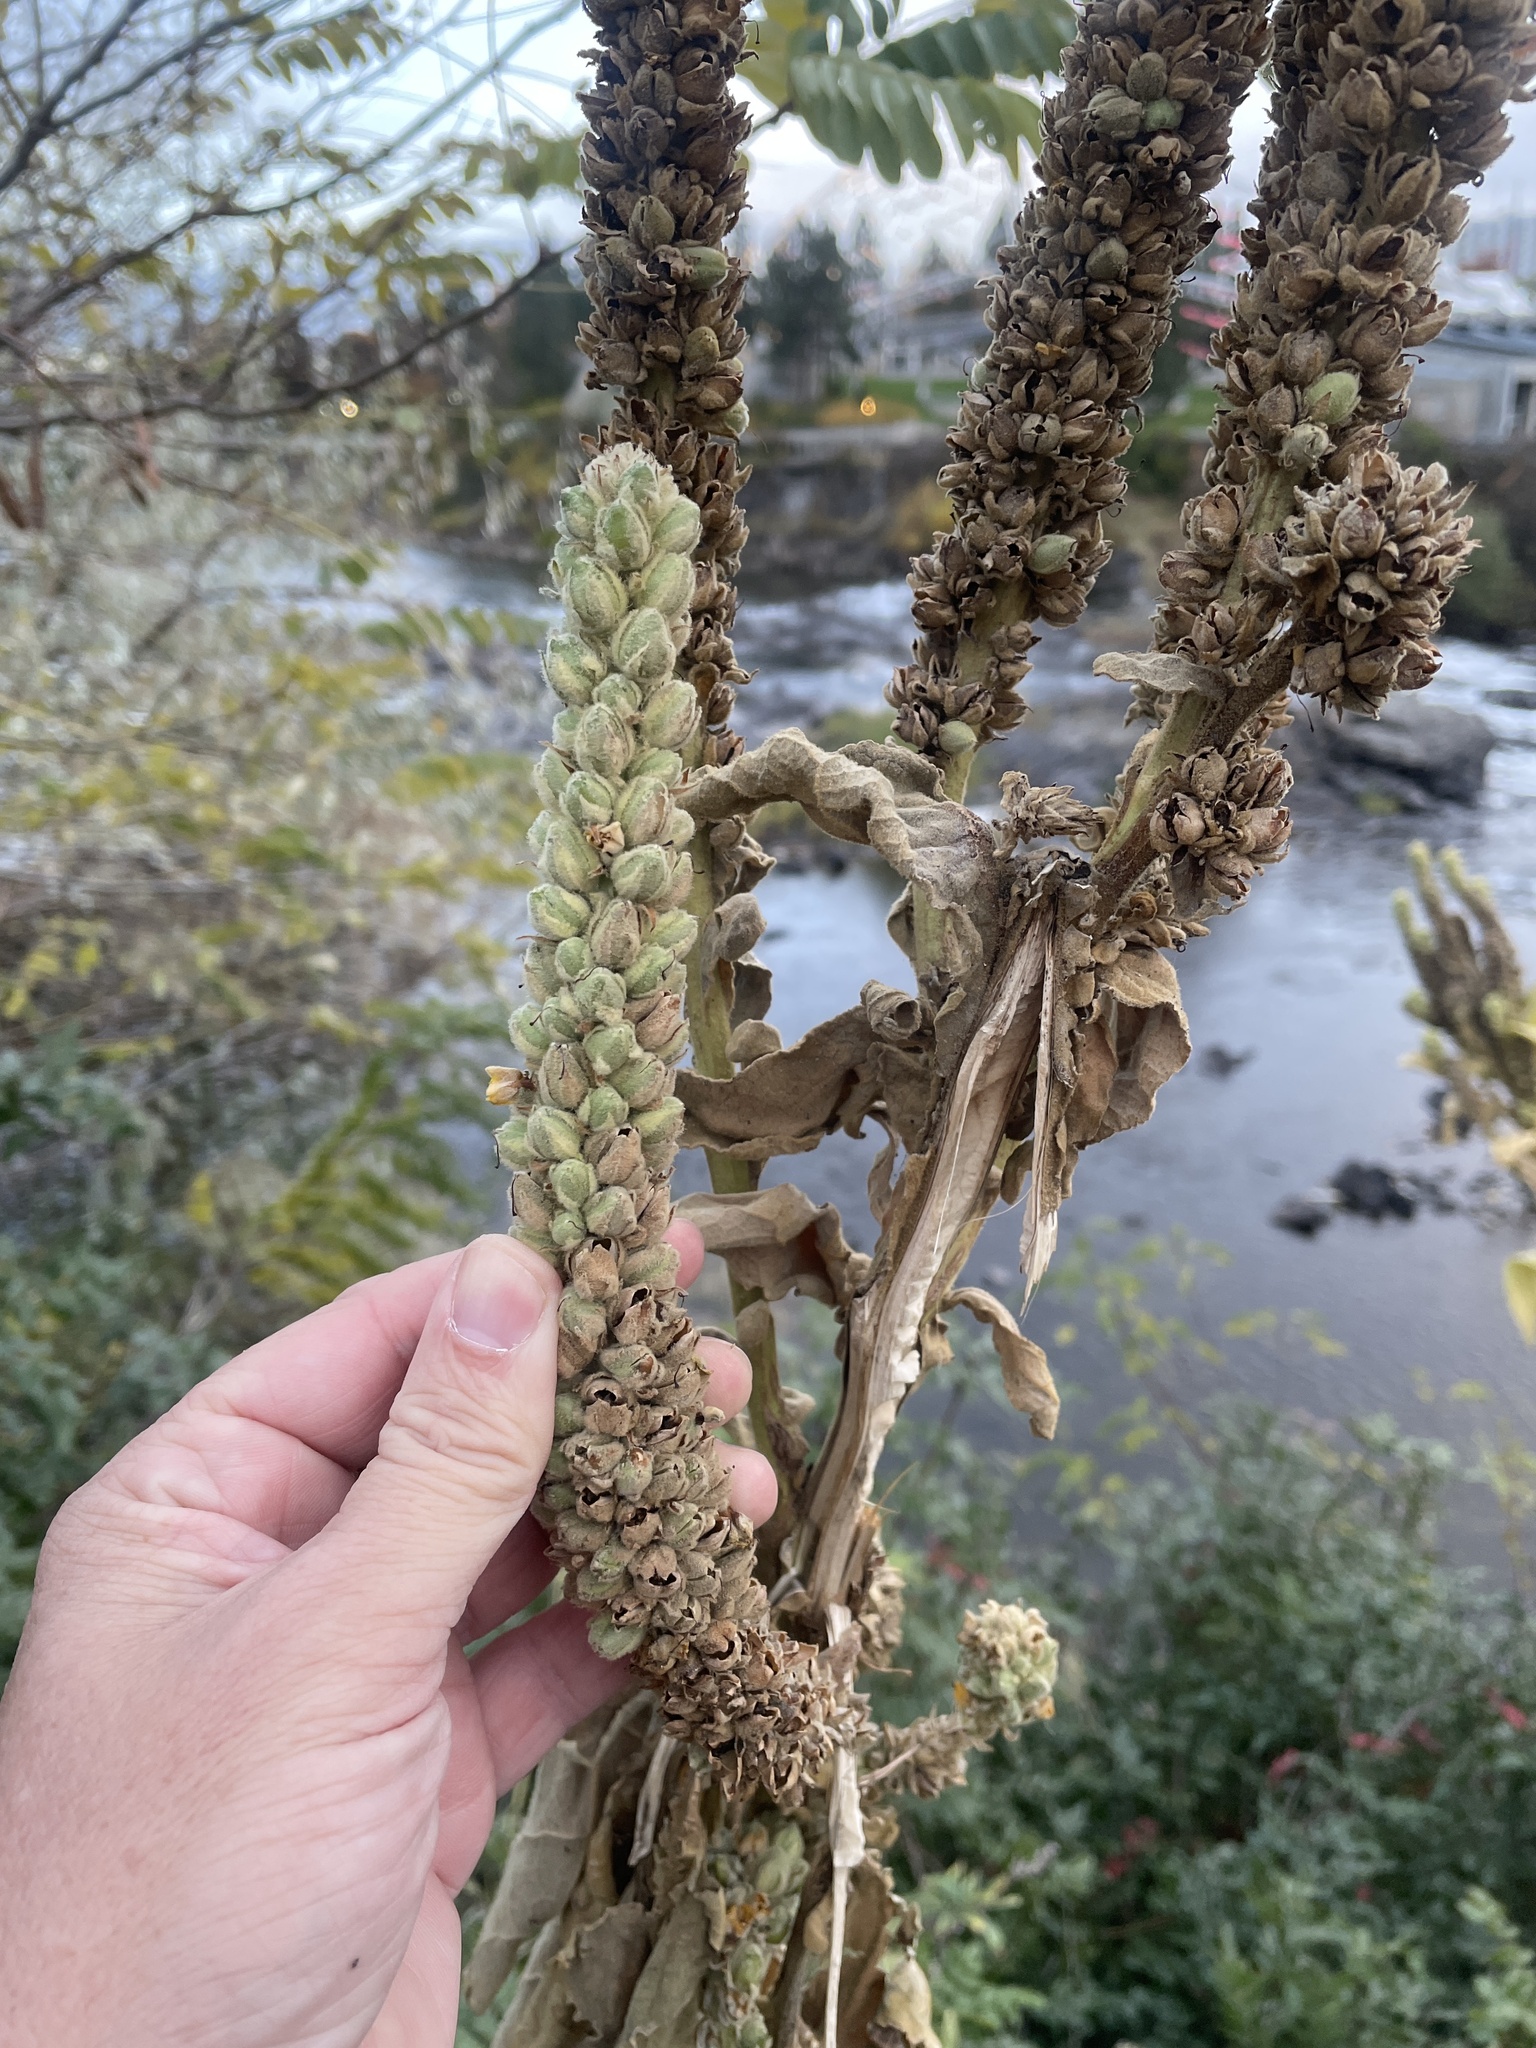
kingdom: Plantae
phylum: Tracheophyta
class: Magnoliopsida
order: Lamiales
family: Scrophulariaceae
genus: Verbascum
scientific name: Verbascum thapsus
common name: Common mullein
